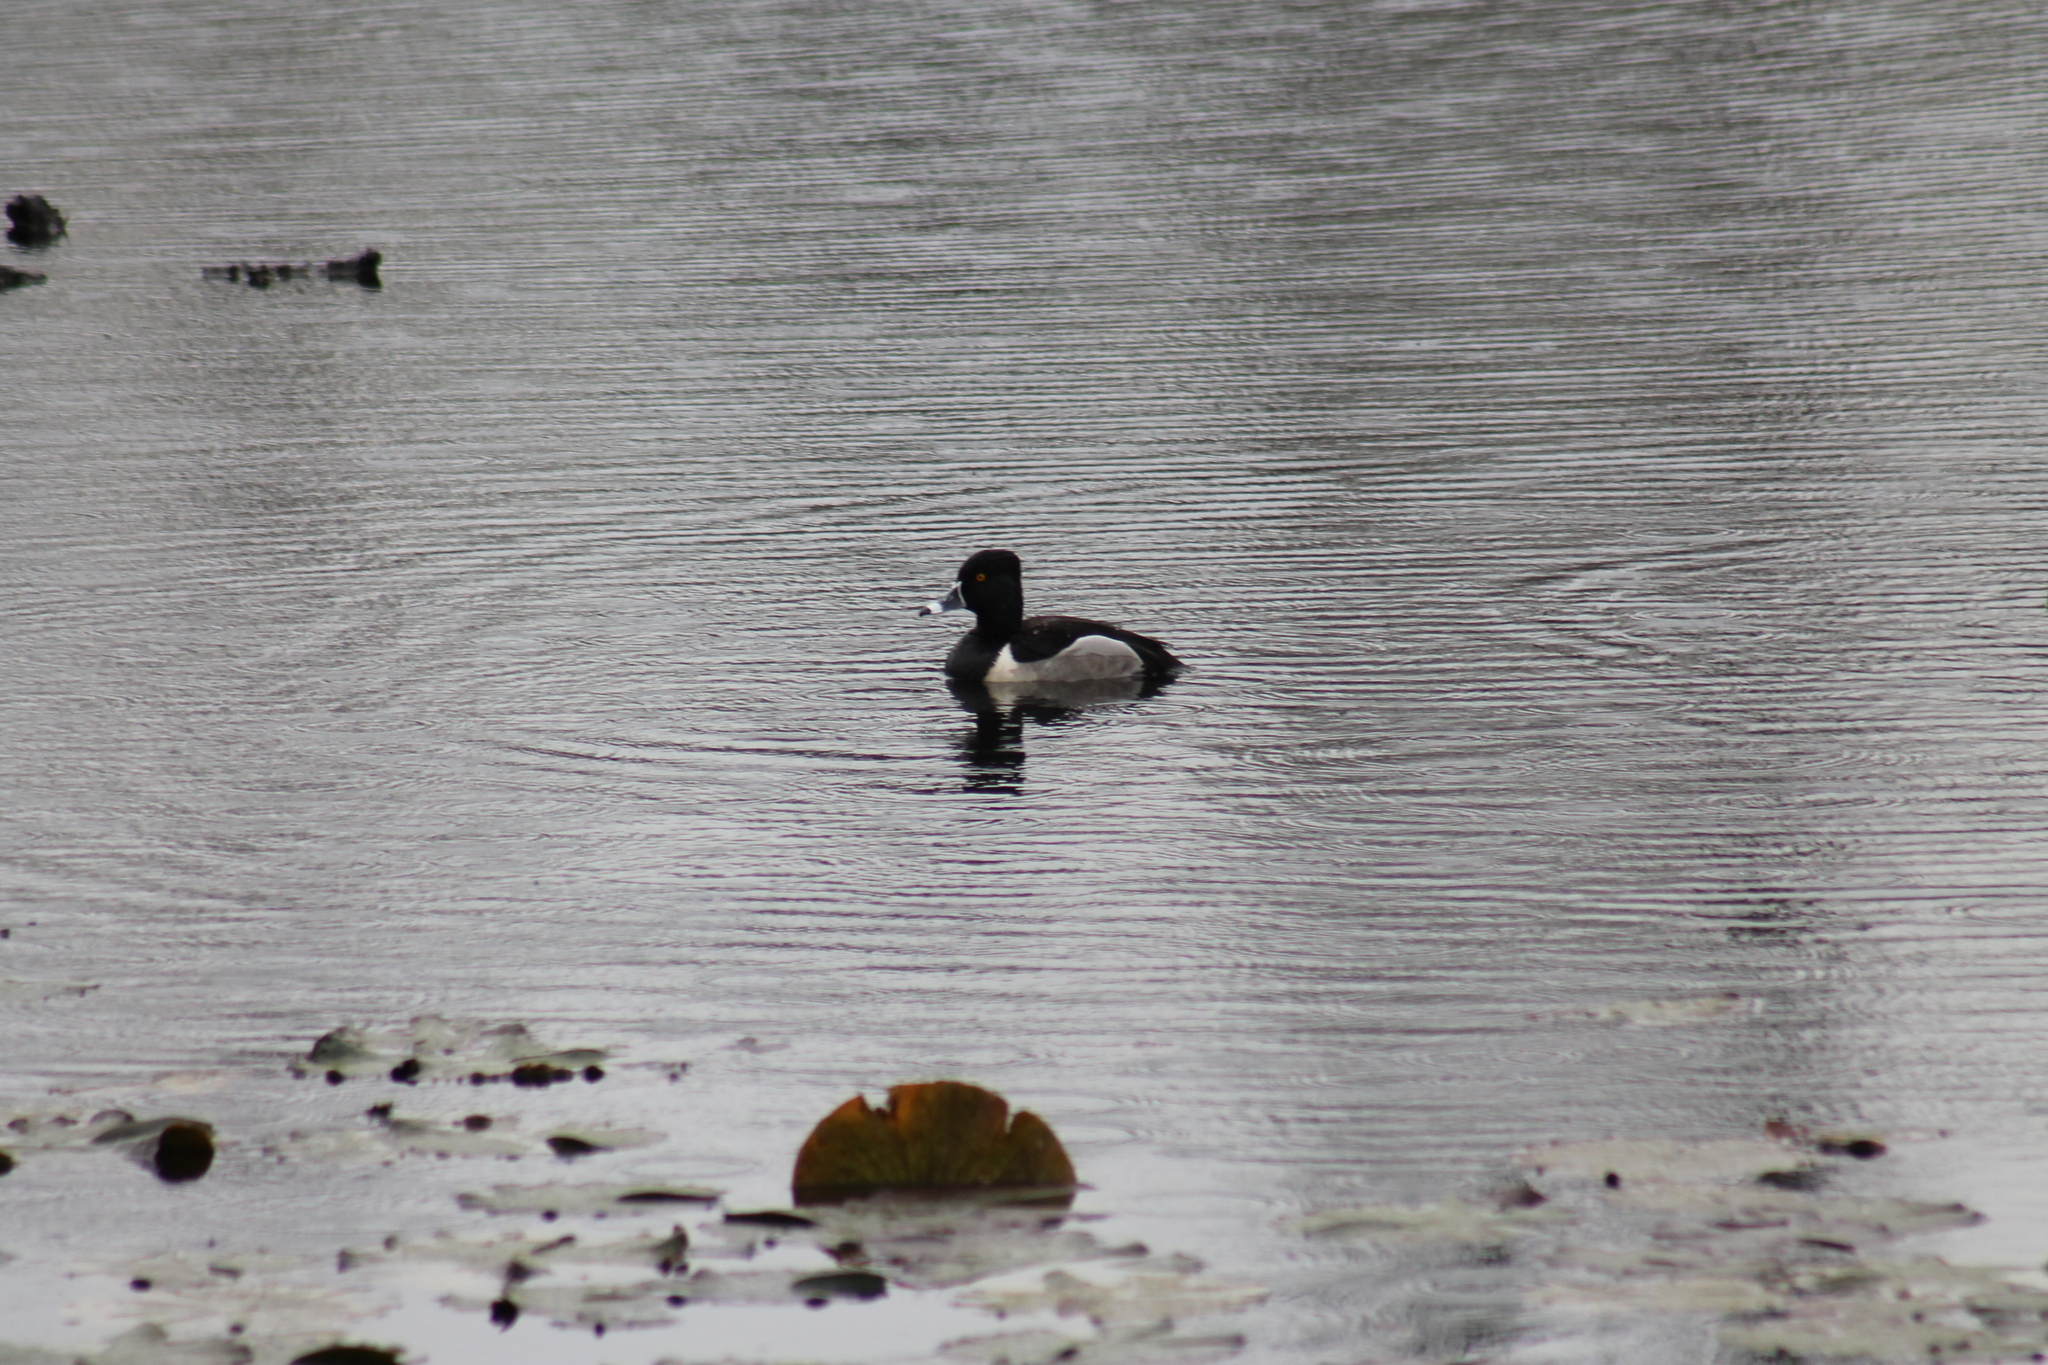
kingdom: Animalia
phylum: Chordata
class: Aves
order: Anseriformes
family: Anatidae
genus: Aythya
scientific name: Aythya collaris
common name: Ring-necked duck
